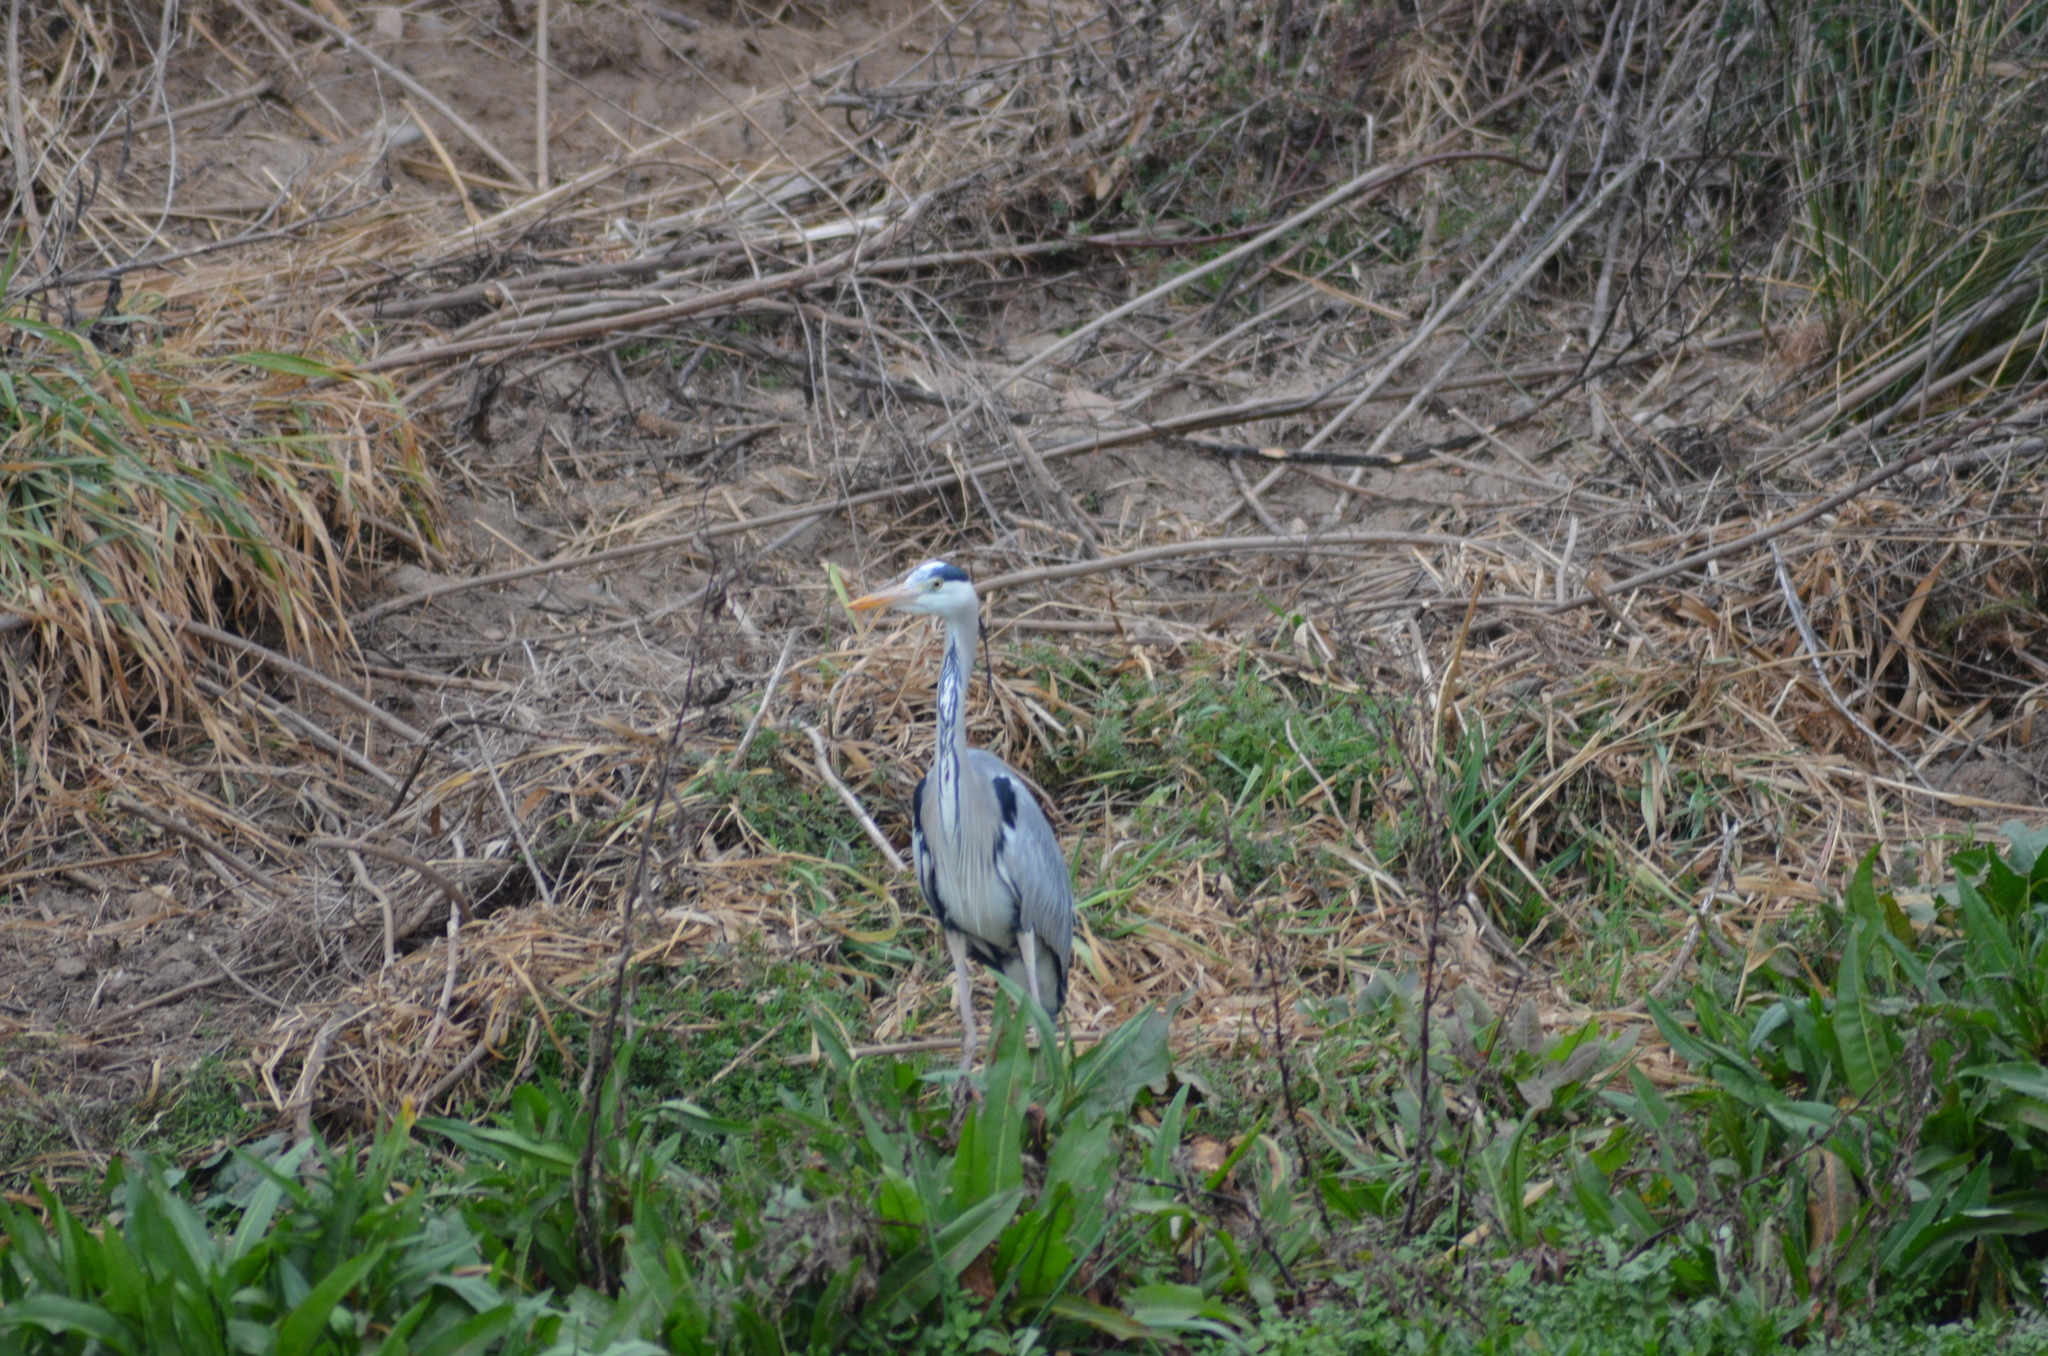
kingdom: Animalia
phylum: Chordata
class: Aves
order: Pelecaniformes
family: Ardeidae
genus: Ardea
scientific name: Ardea cinerea
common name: Grey heron
